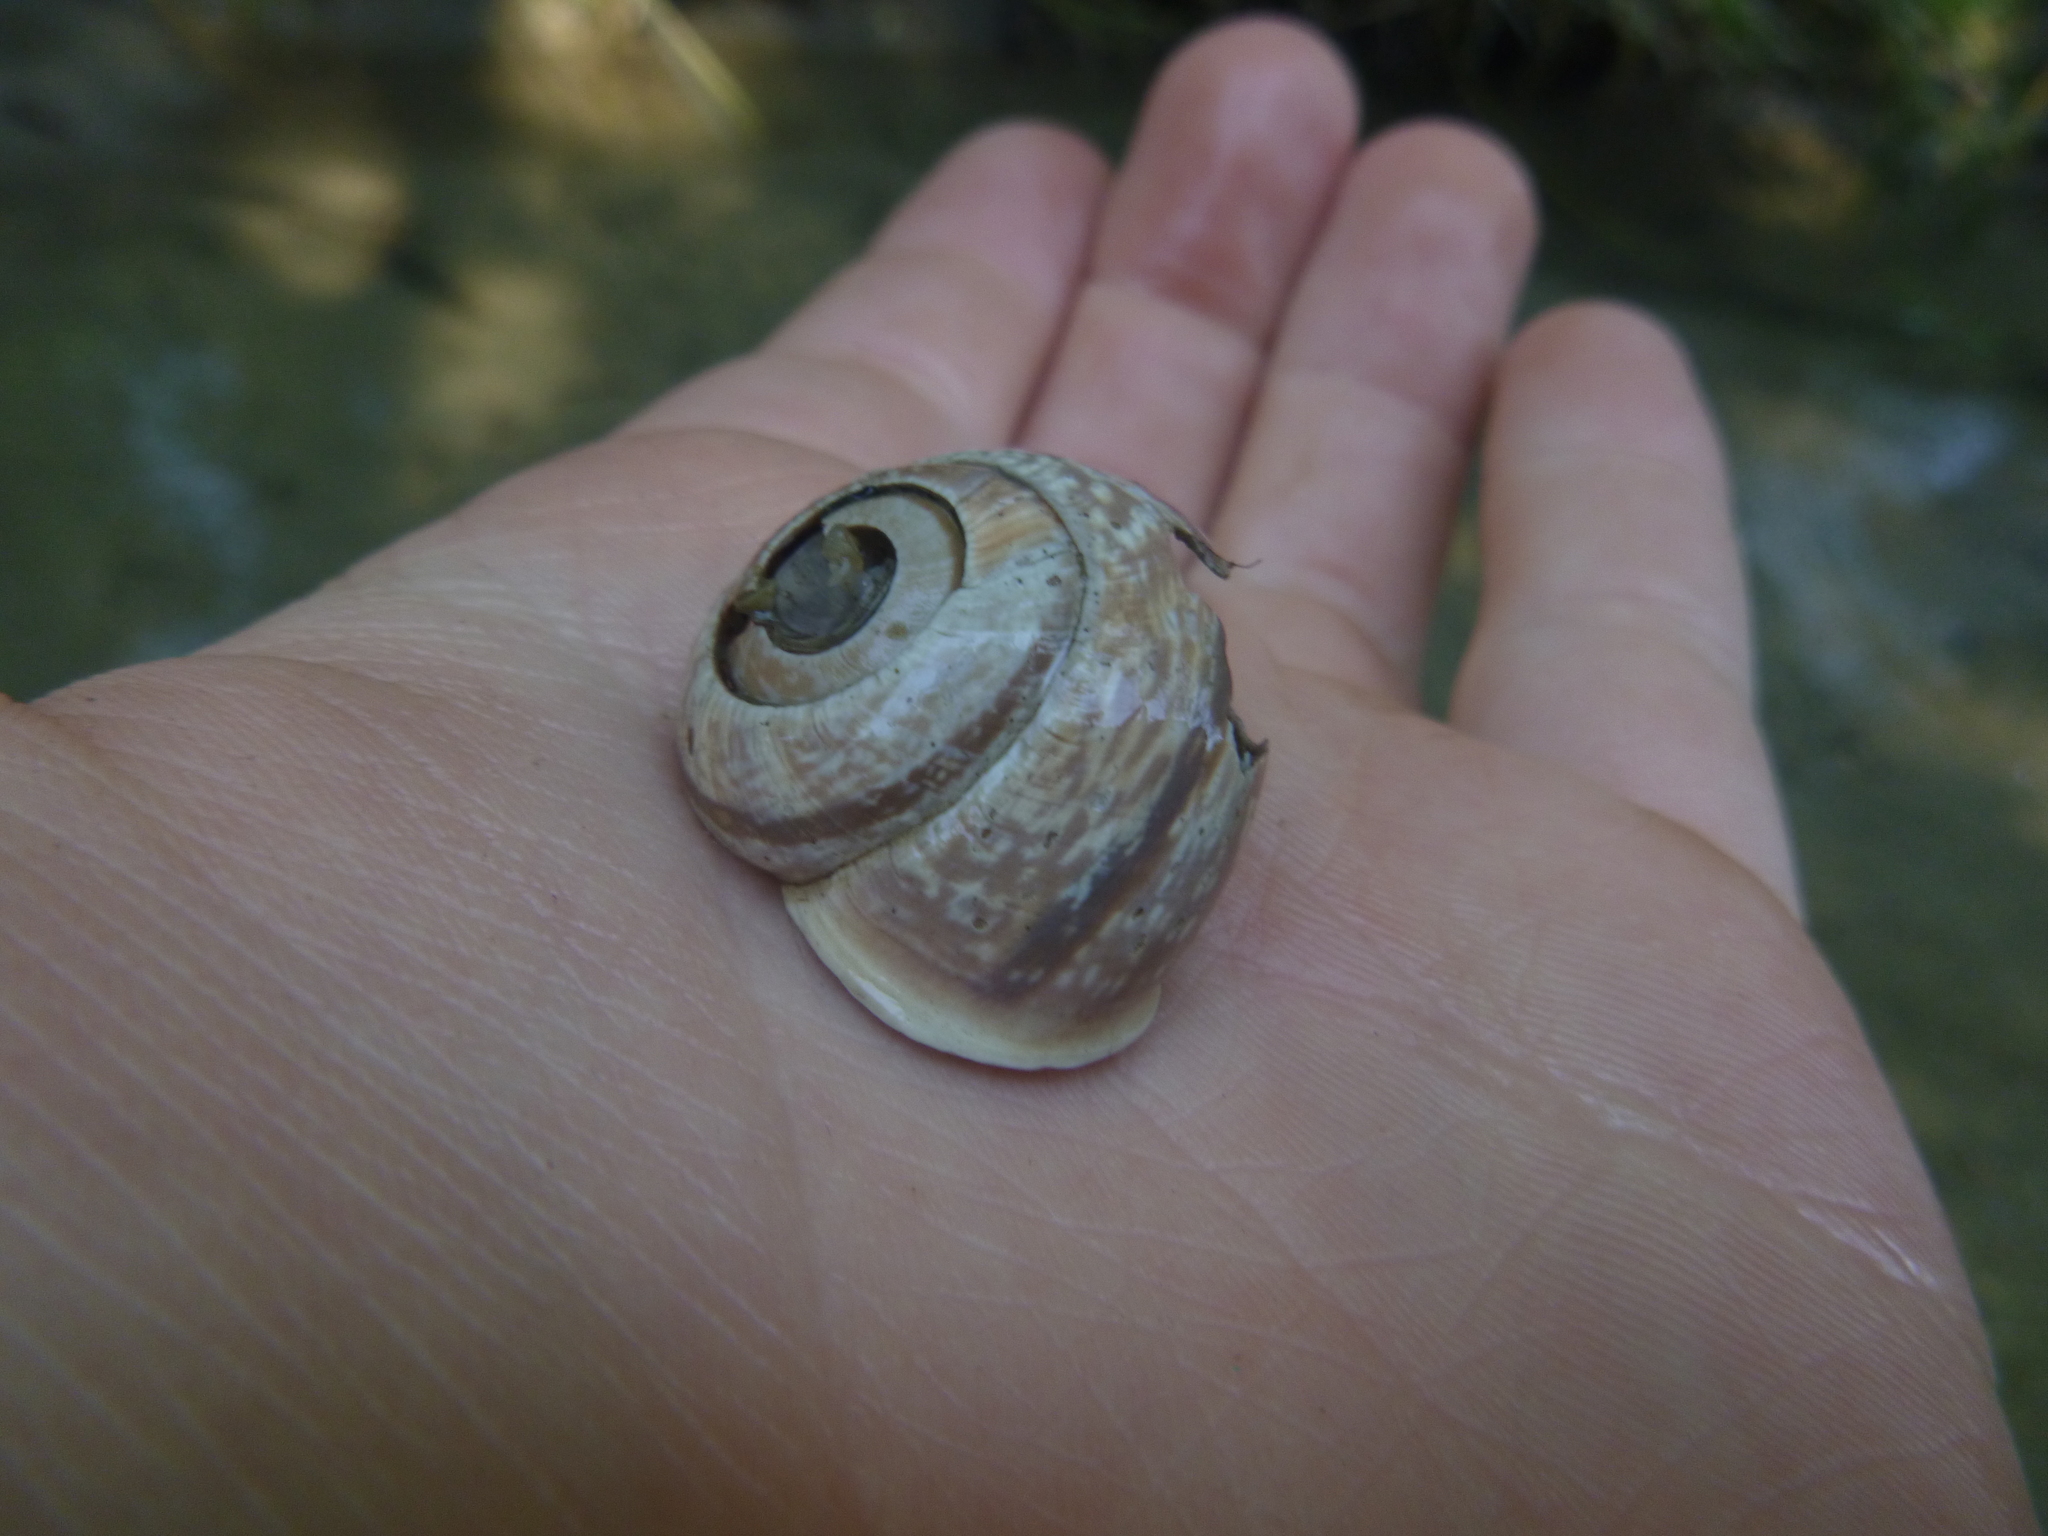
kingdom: Animalia
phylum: Mollusca
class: Gastropoda
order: Stylommatophora
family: Helicidae
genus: Arianta
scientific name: Arianta arbustorum
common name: Copse snail
